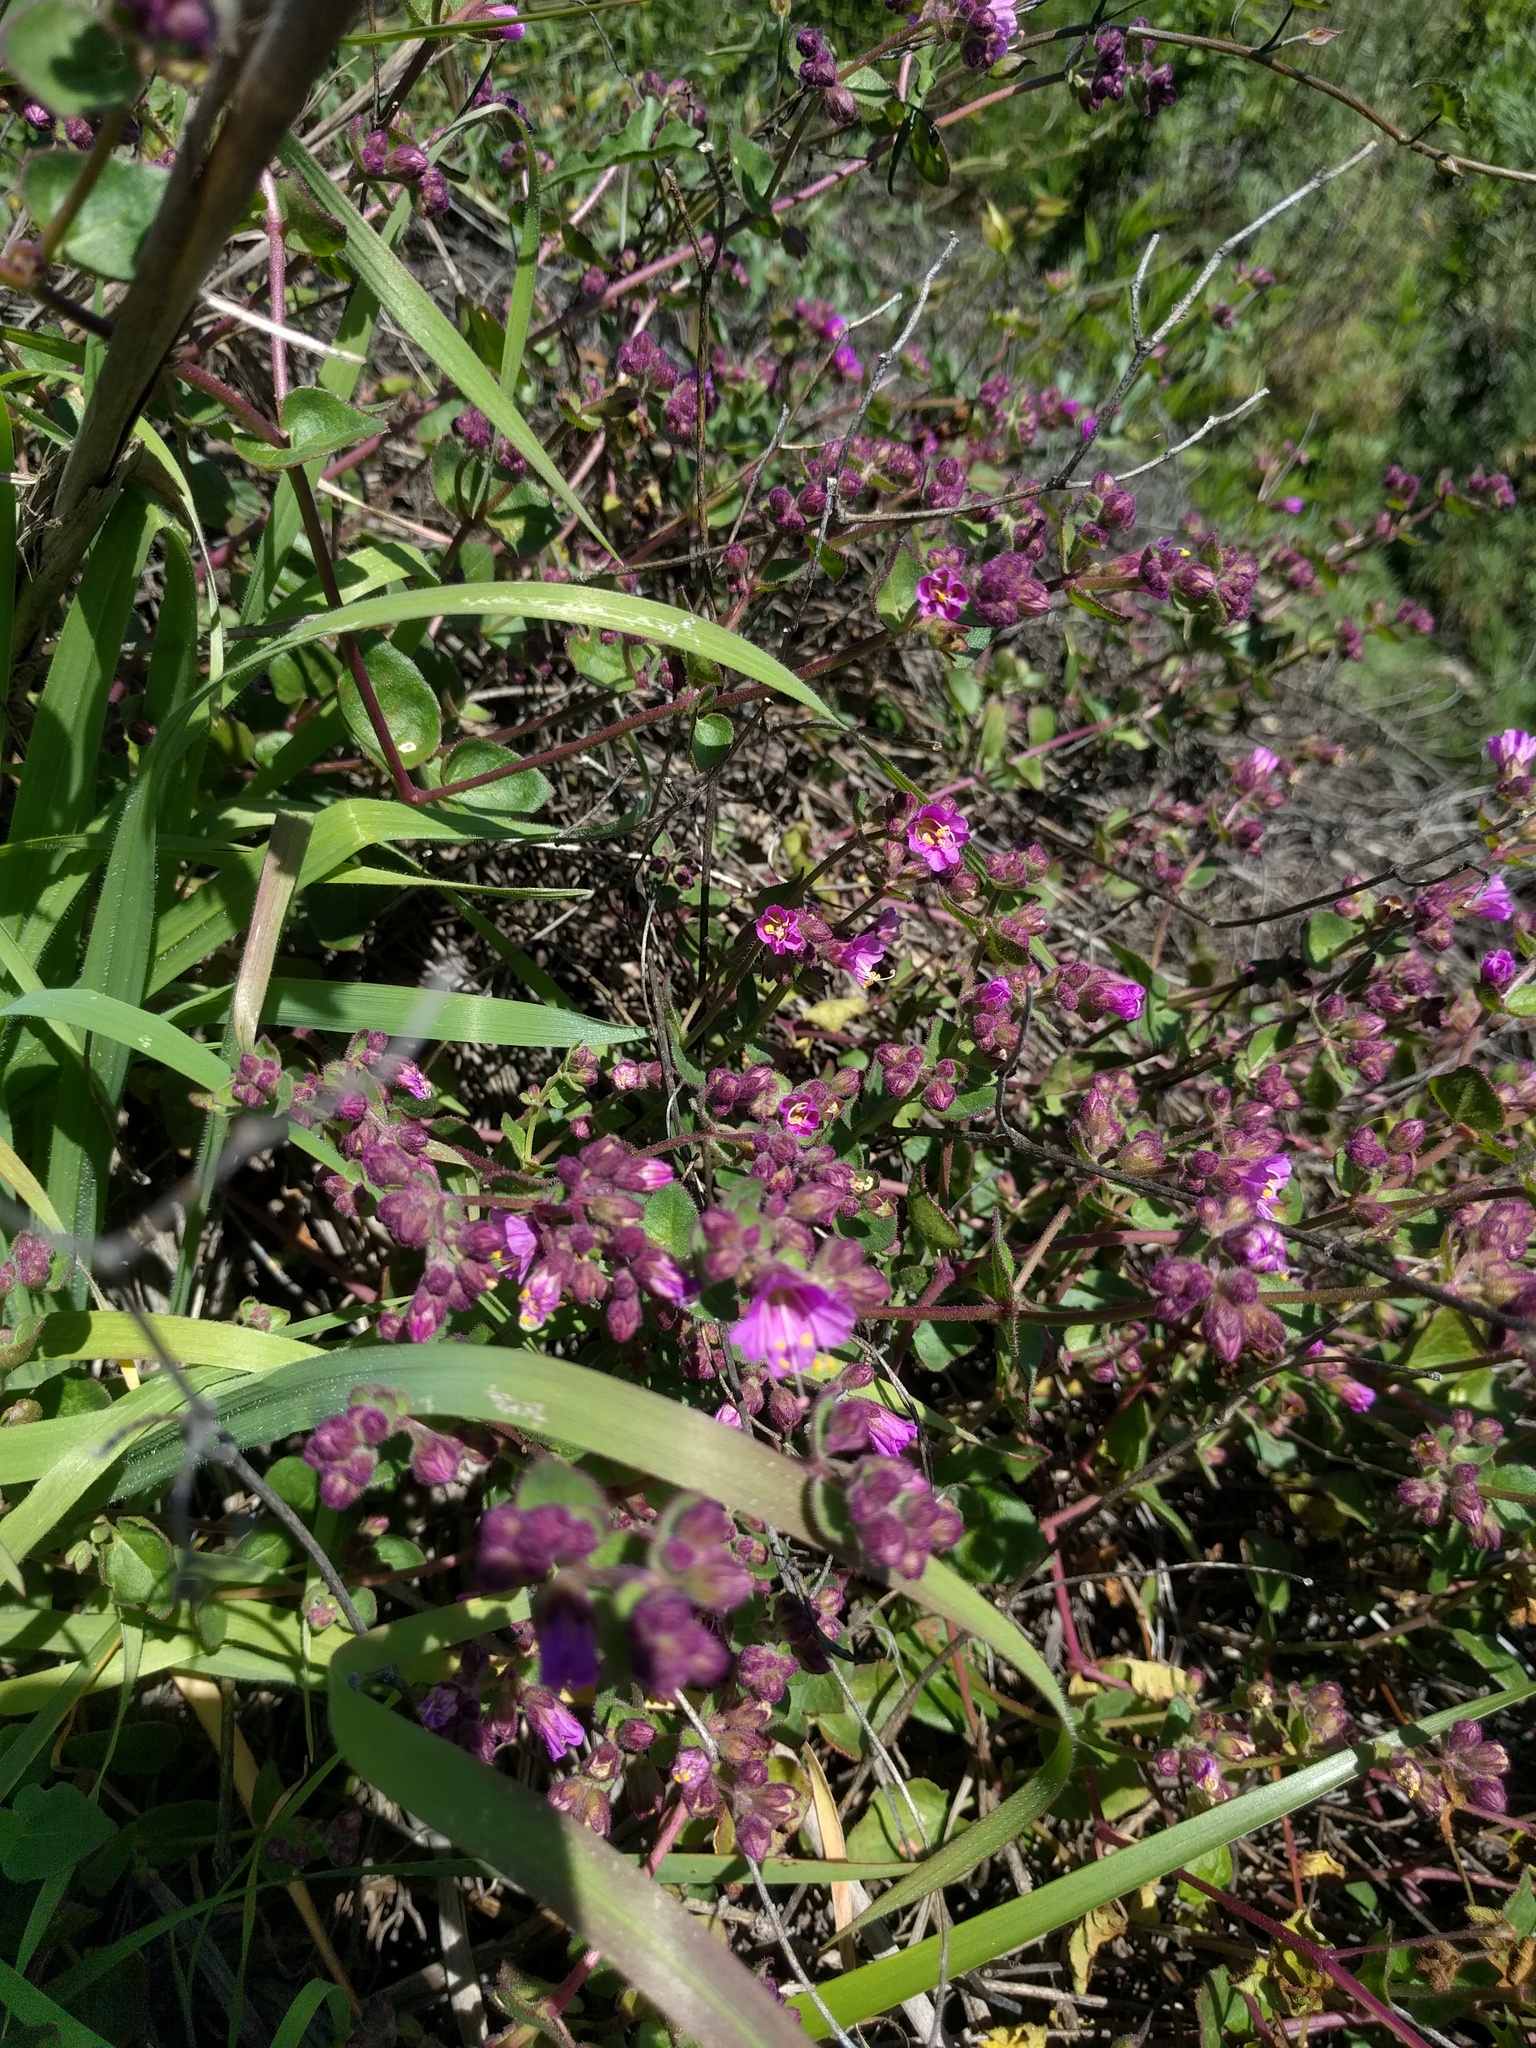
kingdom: Plantae
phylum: Tracheophyta
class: Magnoliopsida
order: Caryophyllales
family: Nyctaginaceae
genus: Mirabilis
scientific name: Mirabilis laevis
